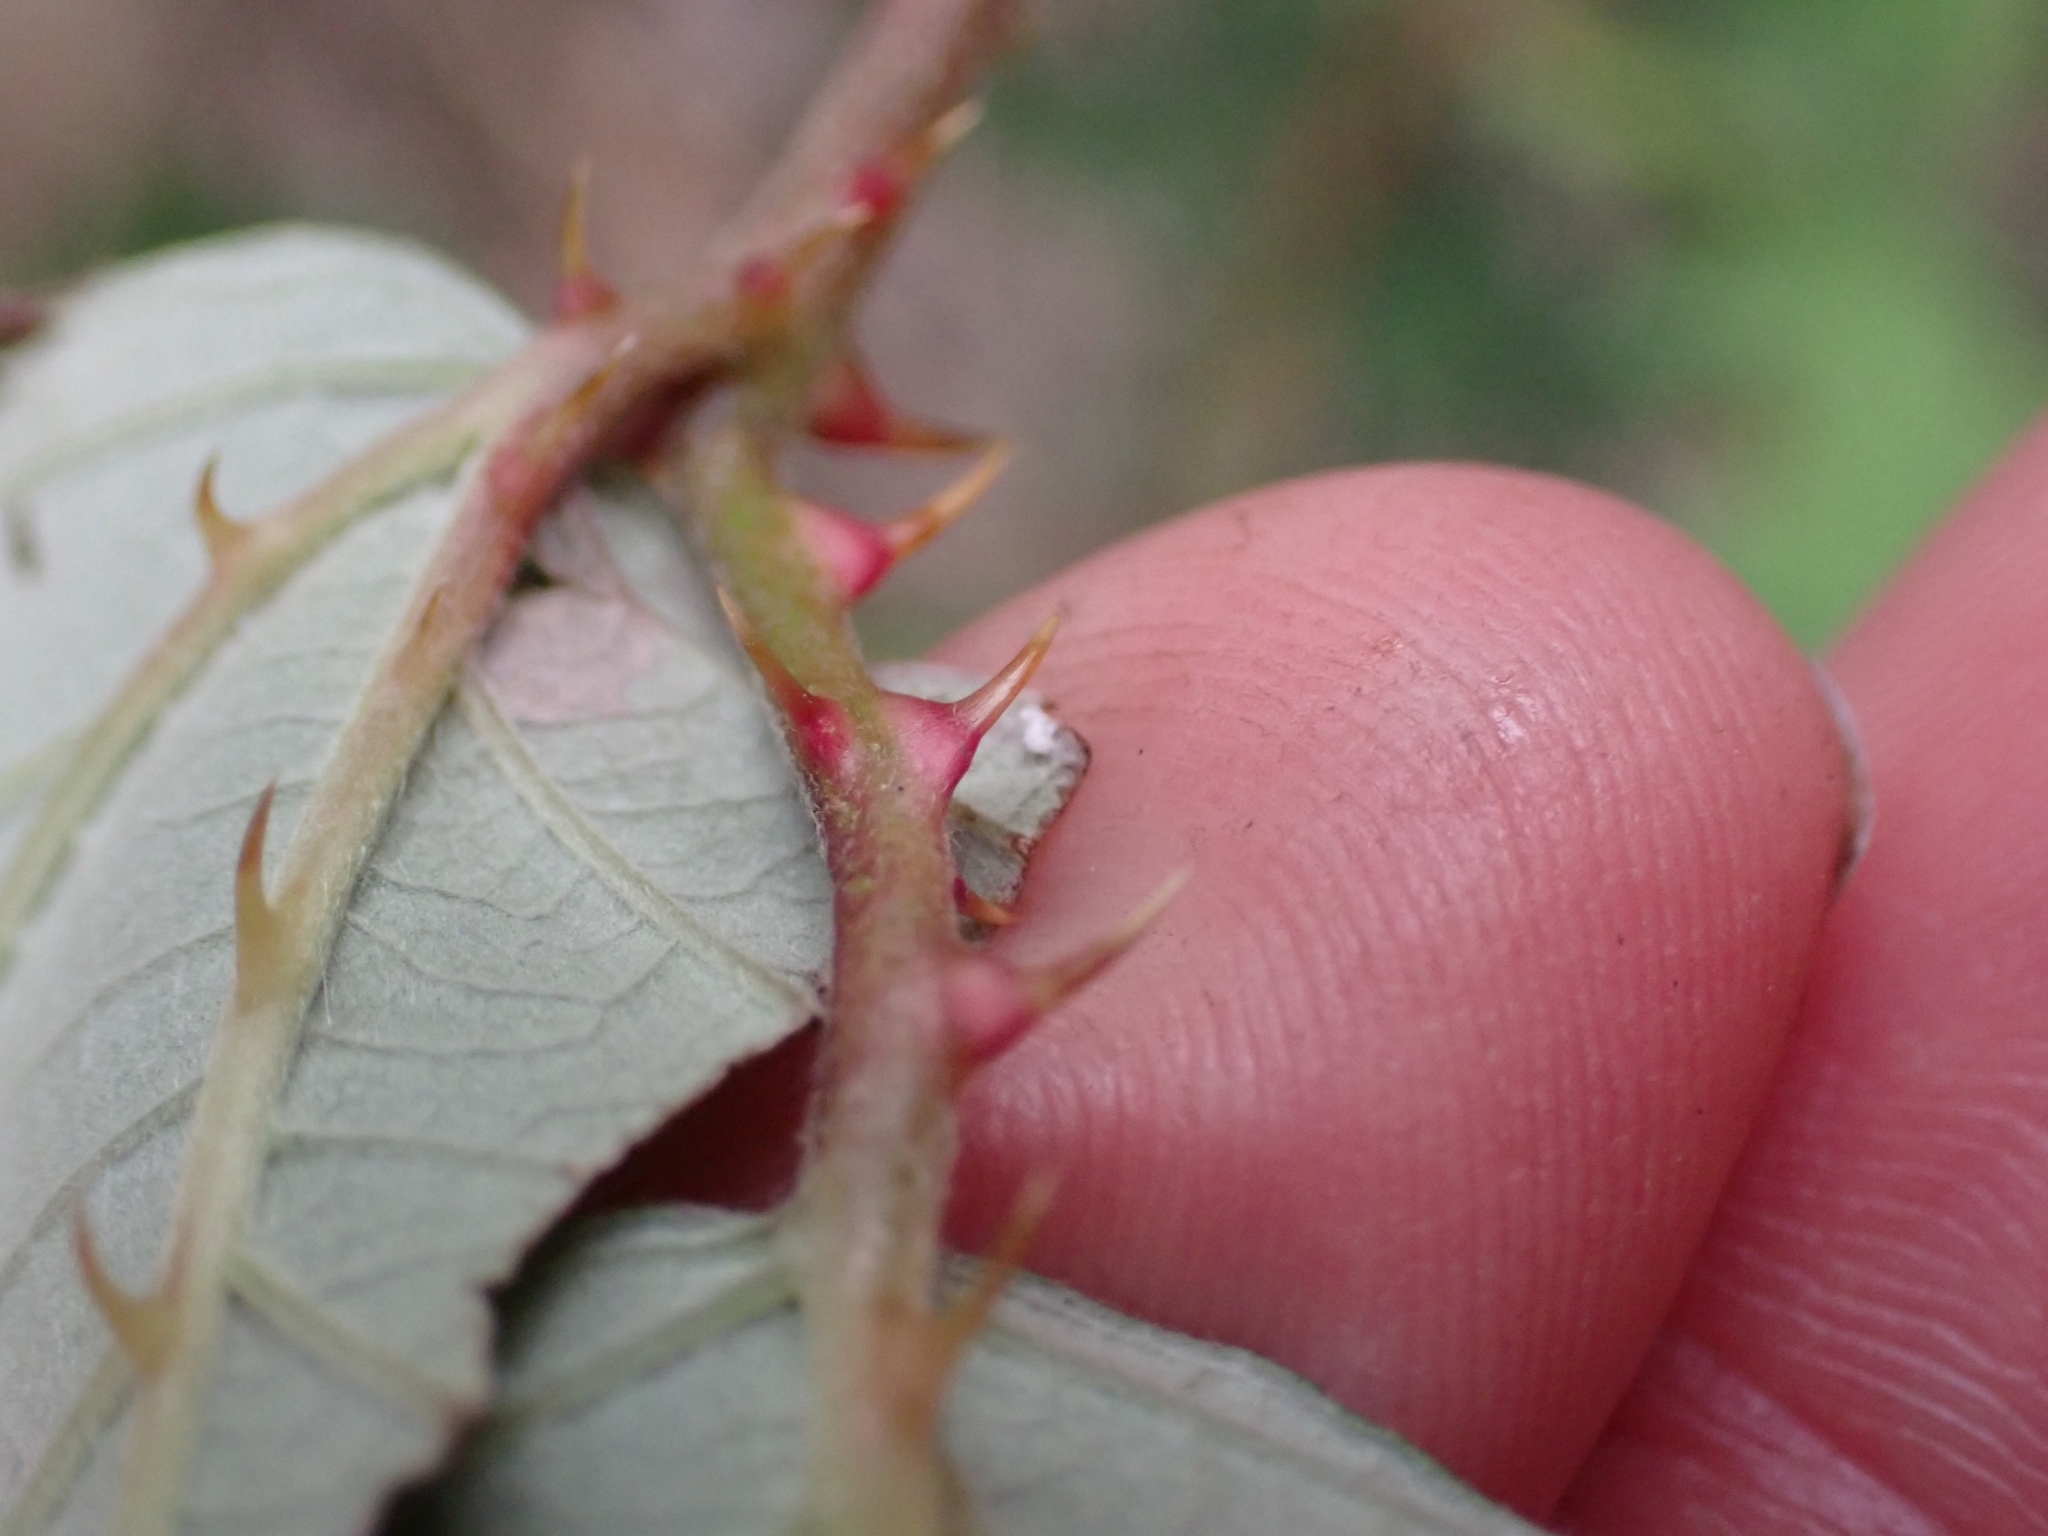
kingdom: Plantae
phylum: Tracheophyta
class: Magnoliopsida
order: Rosales
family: Rosaceae
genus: Rubus
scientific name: Rubus bifrons
